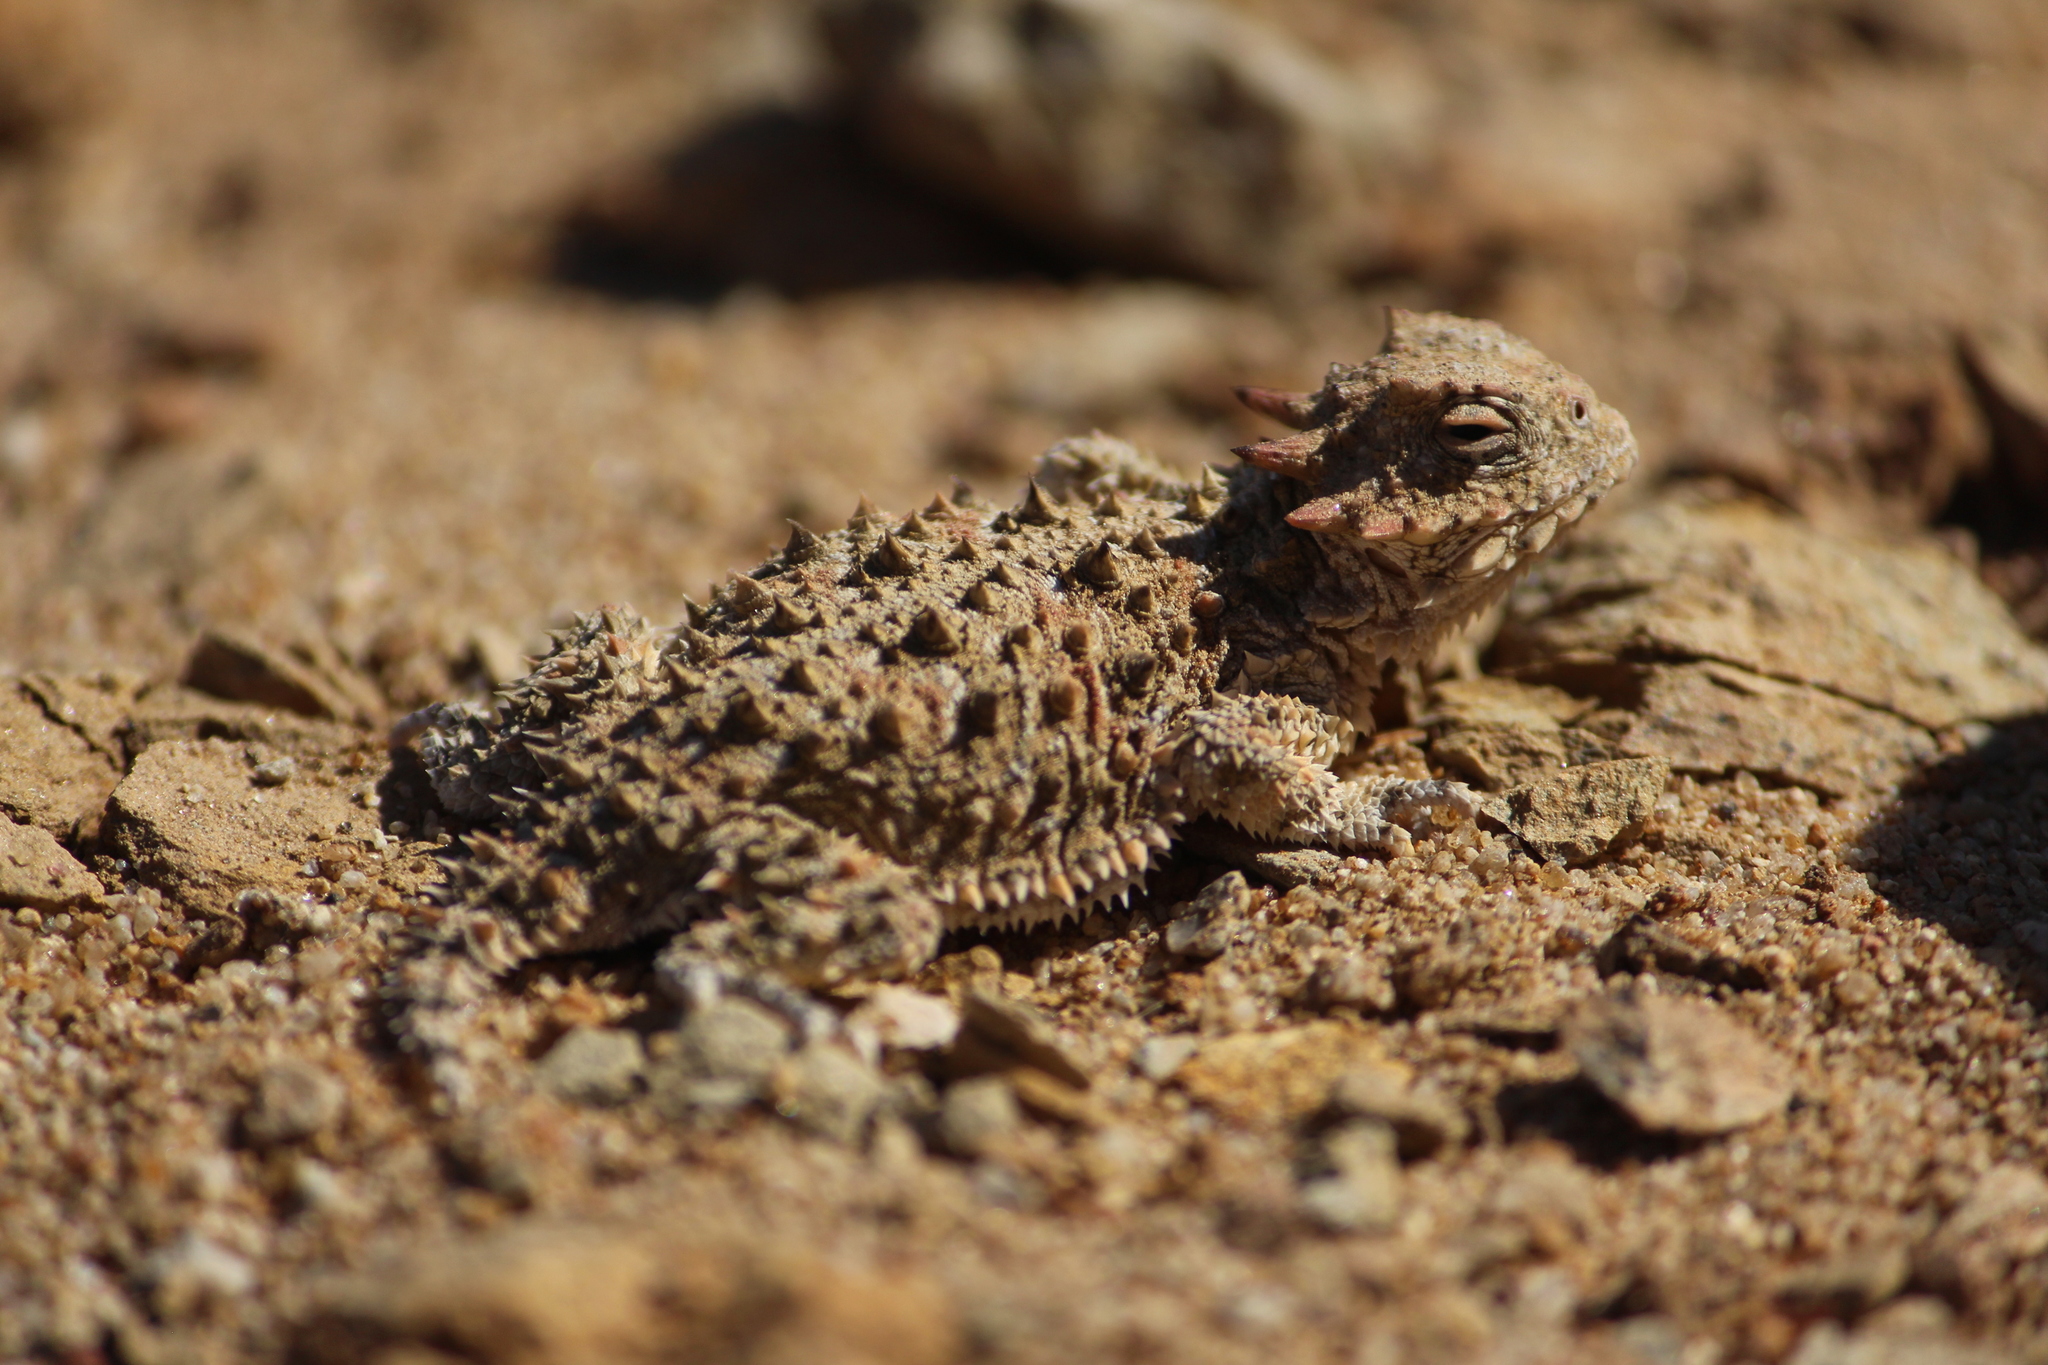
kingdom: Animalia
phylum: Chordata
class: Squamata
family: Phrynosomatidae
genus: Phrynosoma
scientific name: Phrynosoma blainvillii
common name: San diego horned lizard
